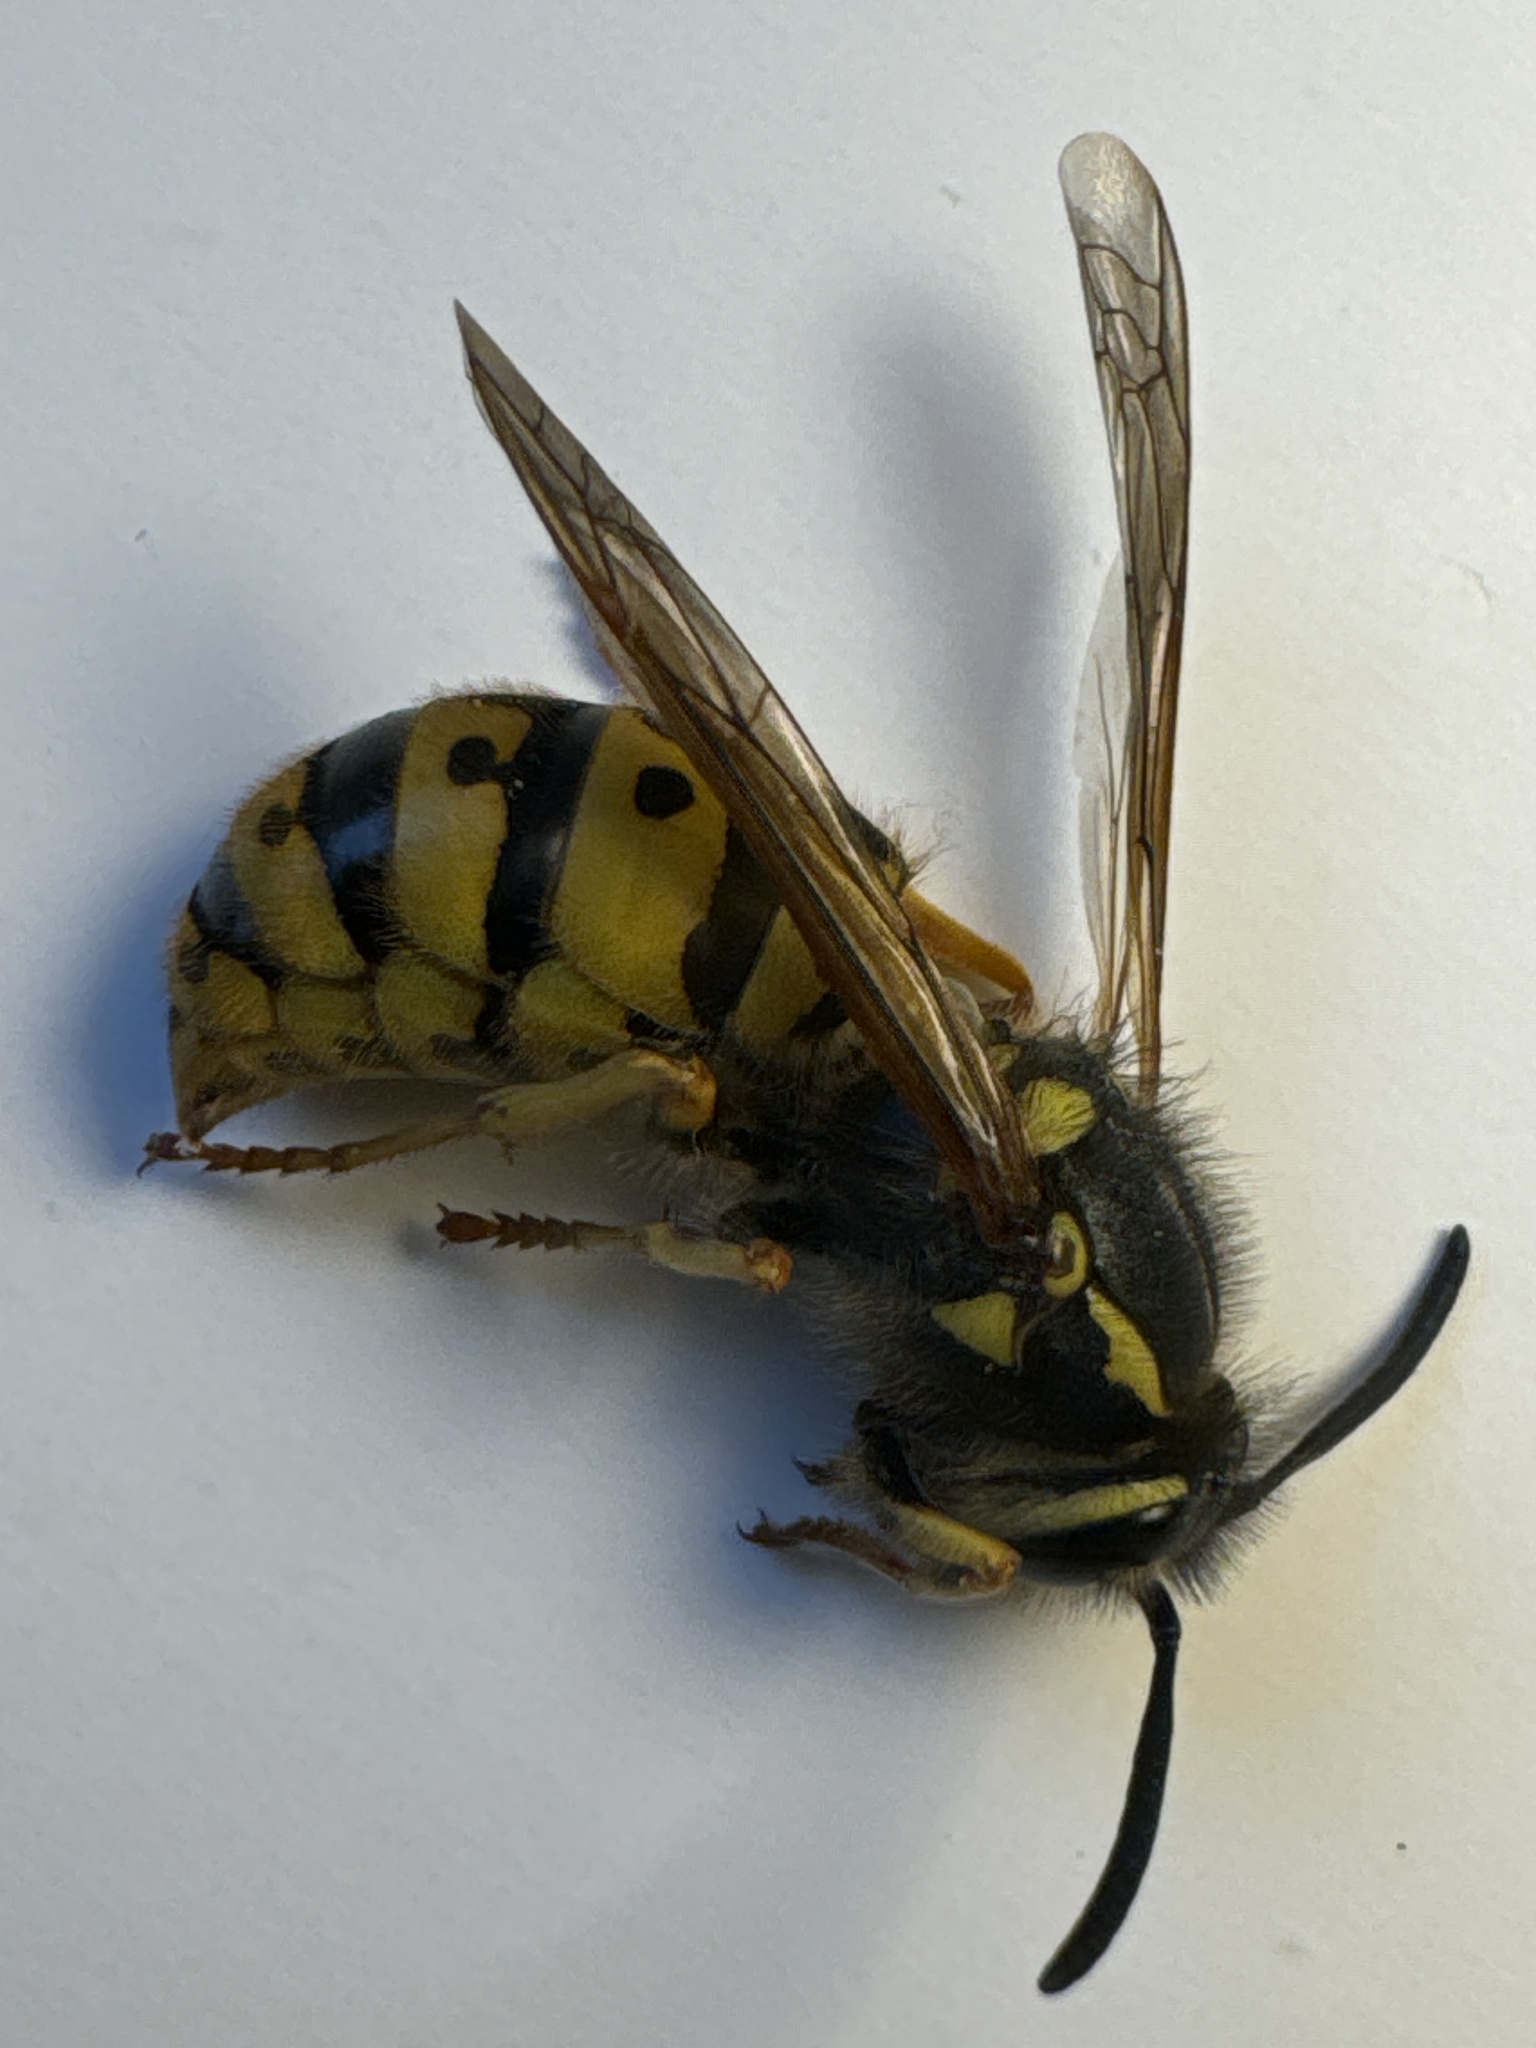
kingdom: Animalia
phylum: Arthropoda
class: Insecta
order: Hymenoptera
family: Vespidae
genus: Vespula
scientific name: Vespula germanica
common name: German wasp
